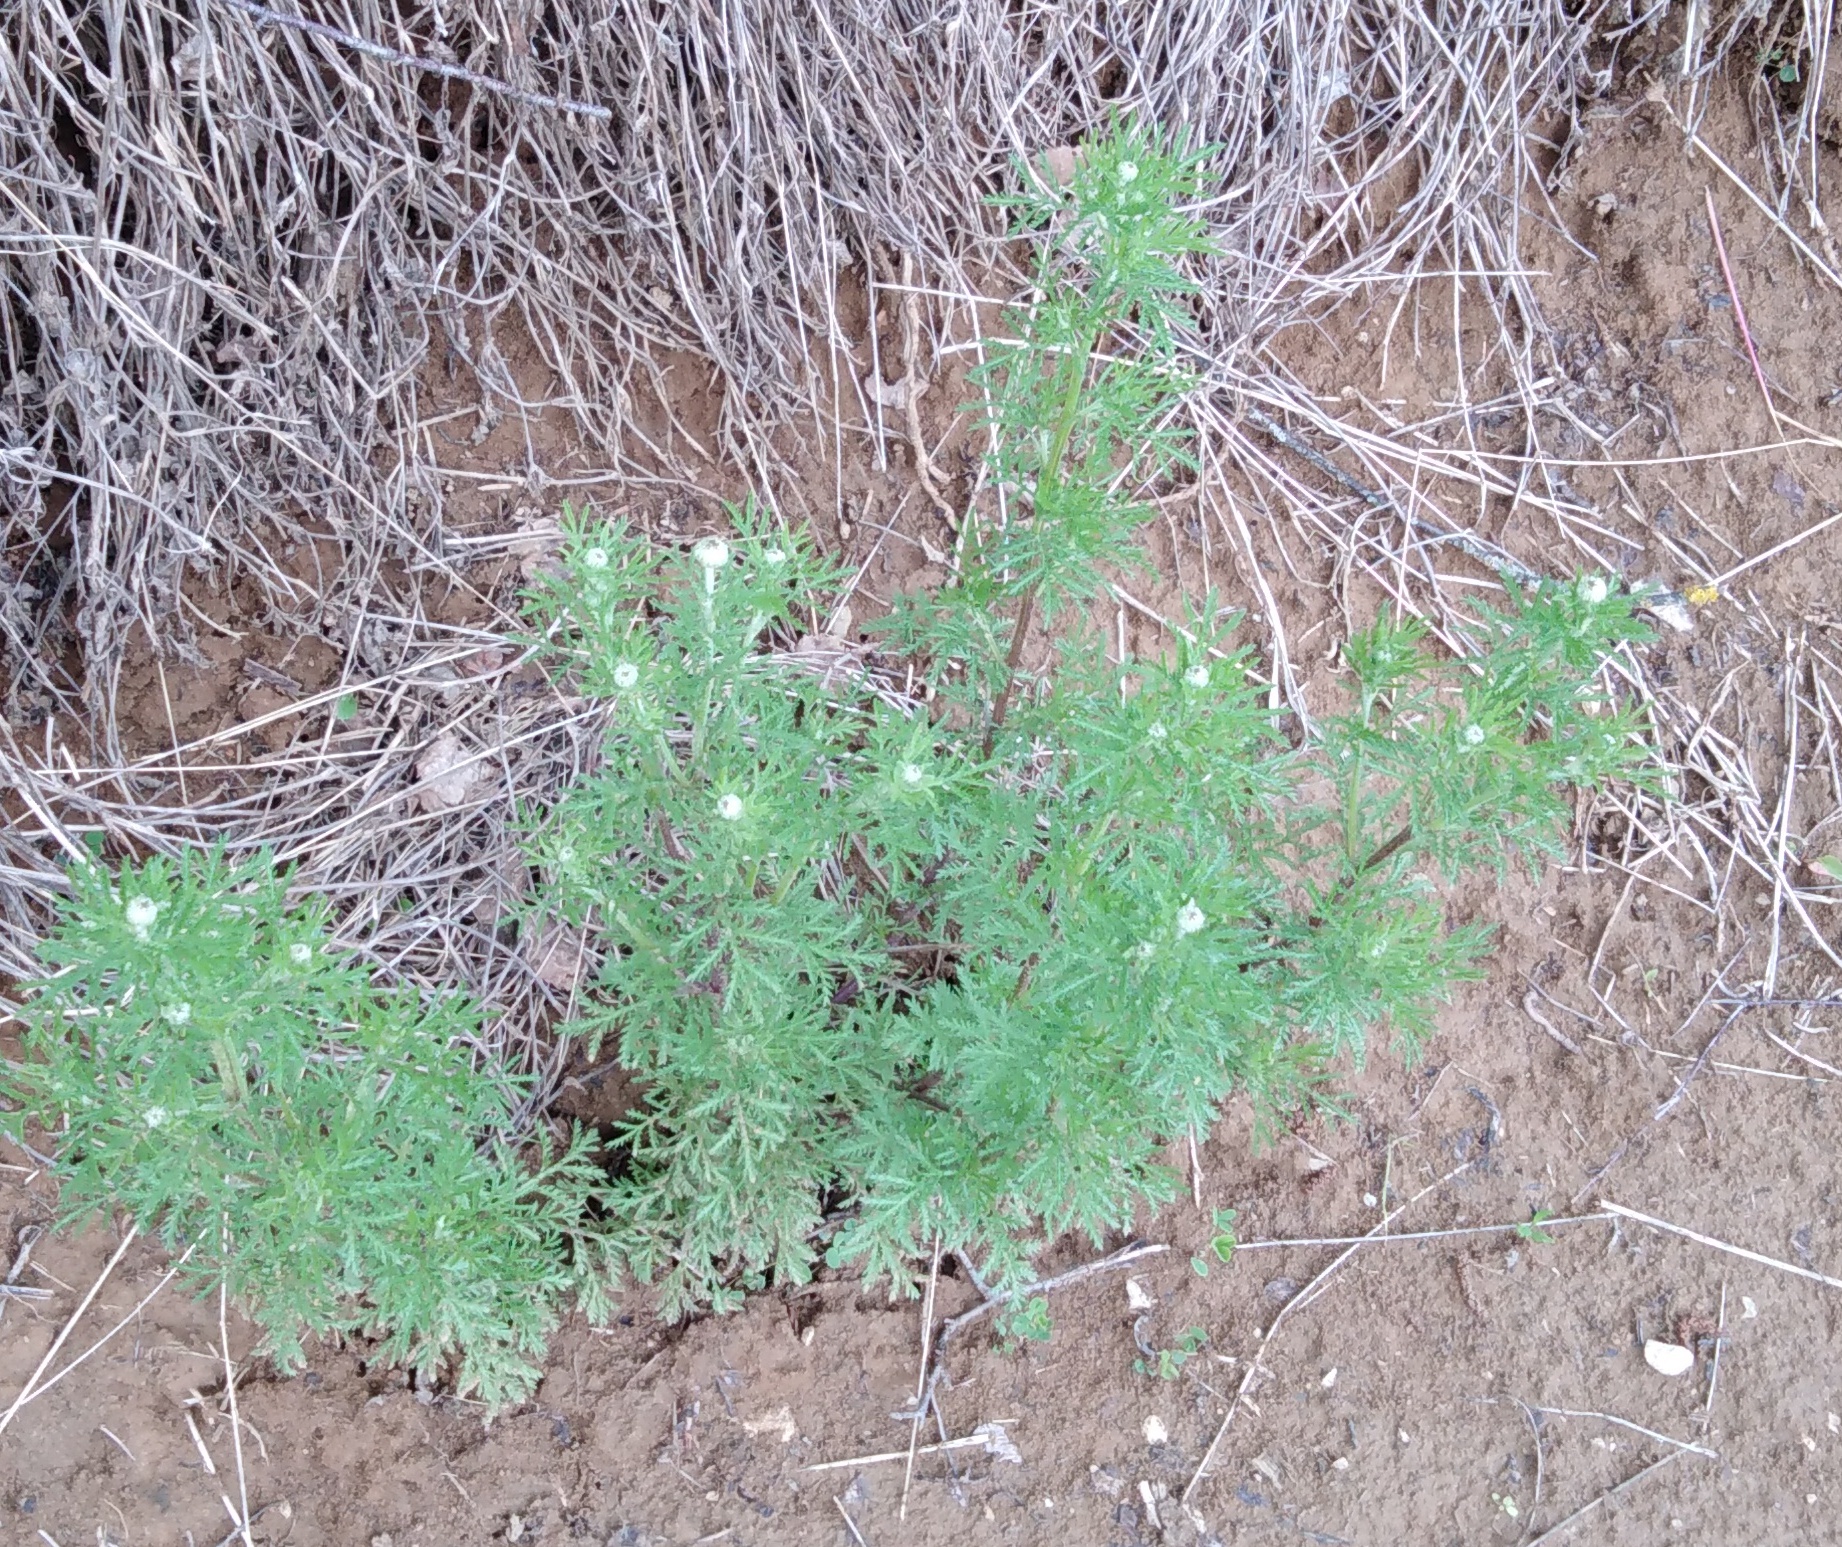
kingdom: Plantae
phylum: Tracheophyta
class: Magnoliopsida
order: Asterales
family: Asteraceae
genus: Cota
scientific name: Cota tinctoria
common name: Golden chamomile
